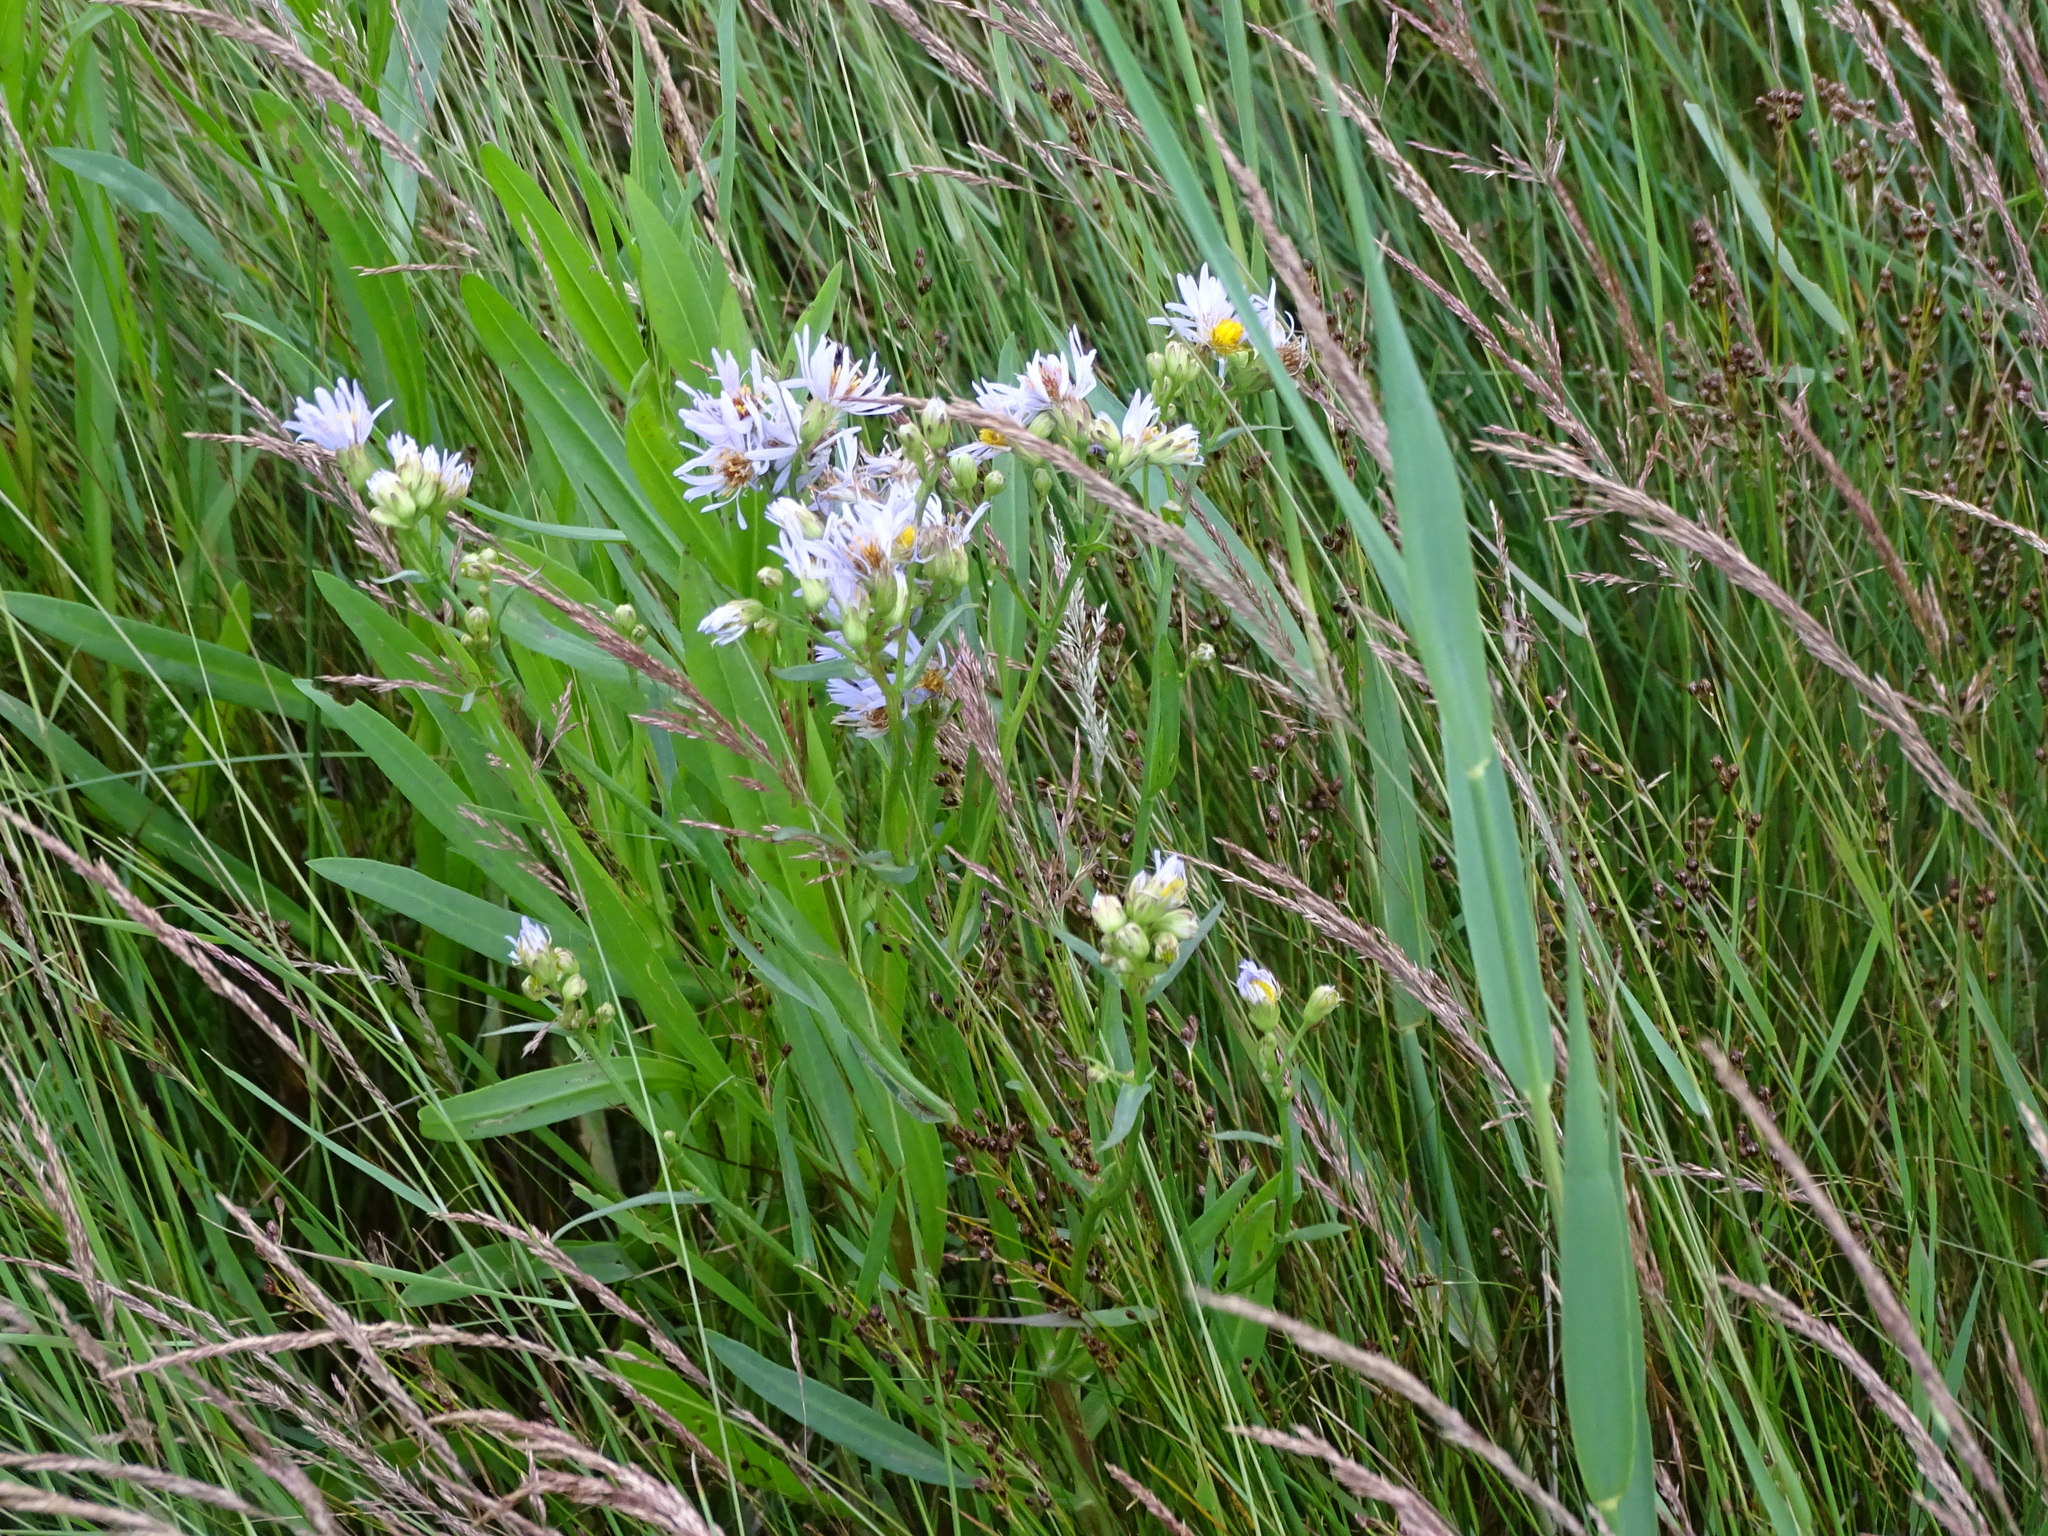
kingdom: Plantae
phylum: Tracheophyta
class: Magnoliopsida
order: Asterales
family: Asteraceae
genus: Tripolium
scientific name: Tripolium pannonicum
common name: Sea aster
